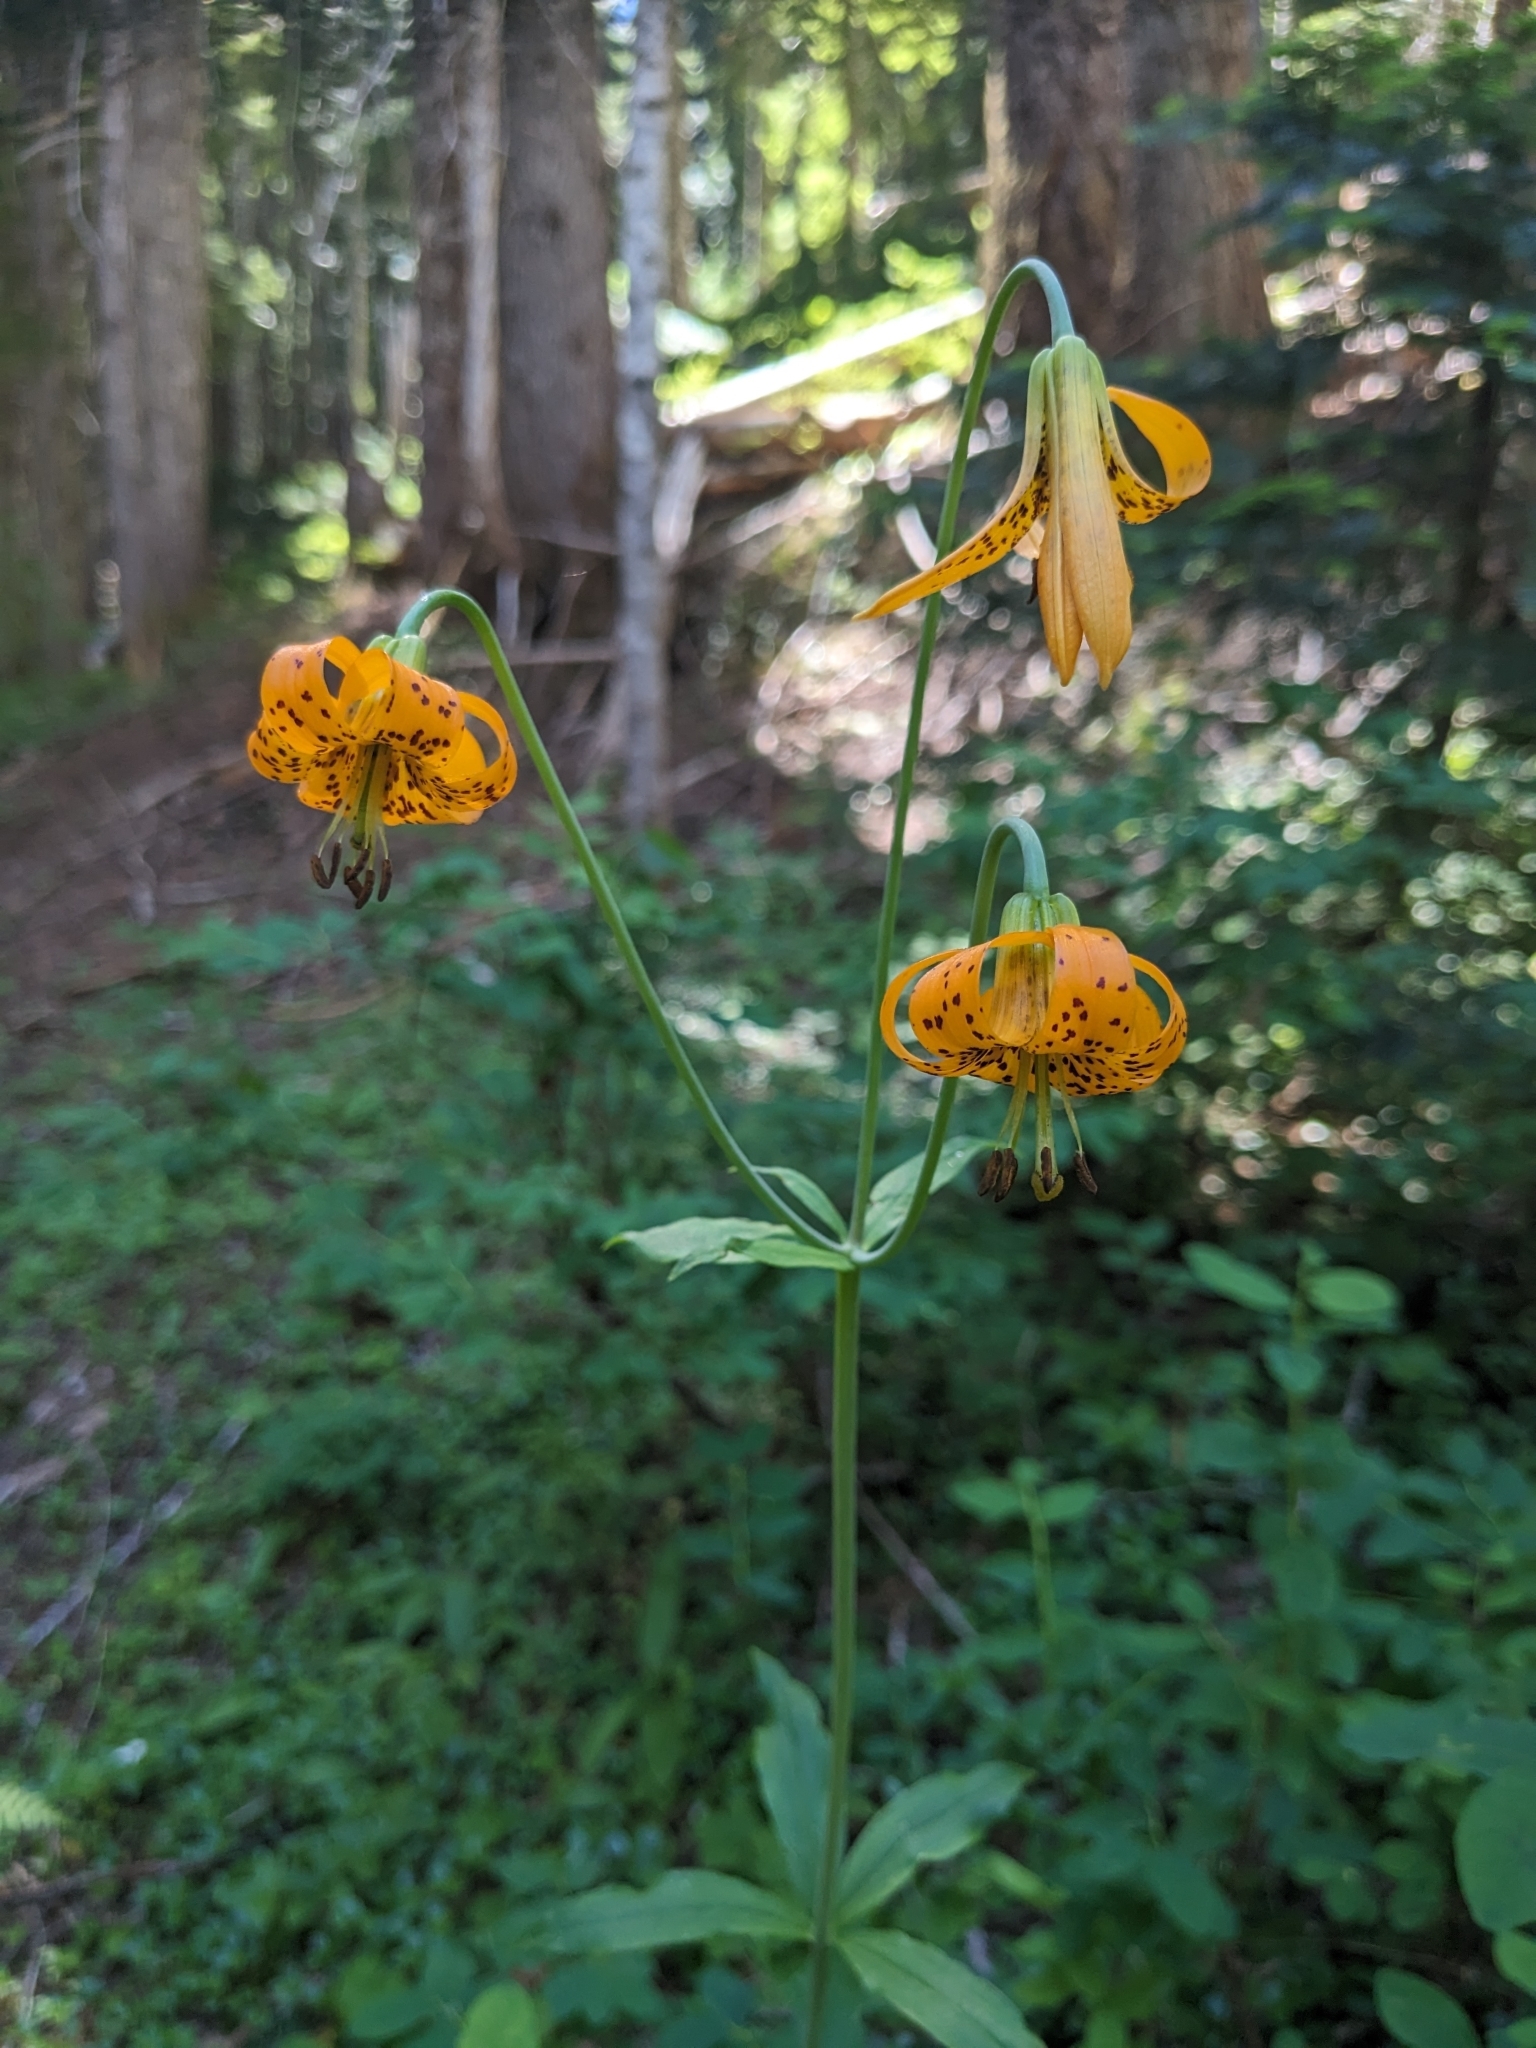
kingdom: Plantae
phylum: Tracheophyta
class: Liliopsida
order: Liliales
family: Liliaceae
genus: Lilium
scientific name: Lilium columbianum
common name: Columbia lily
